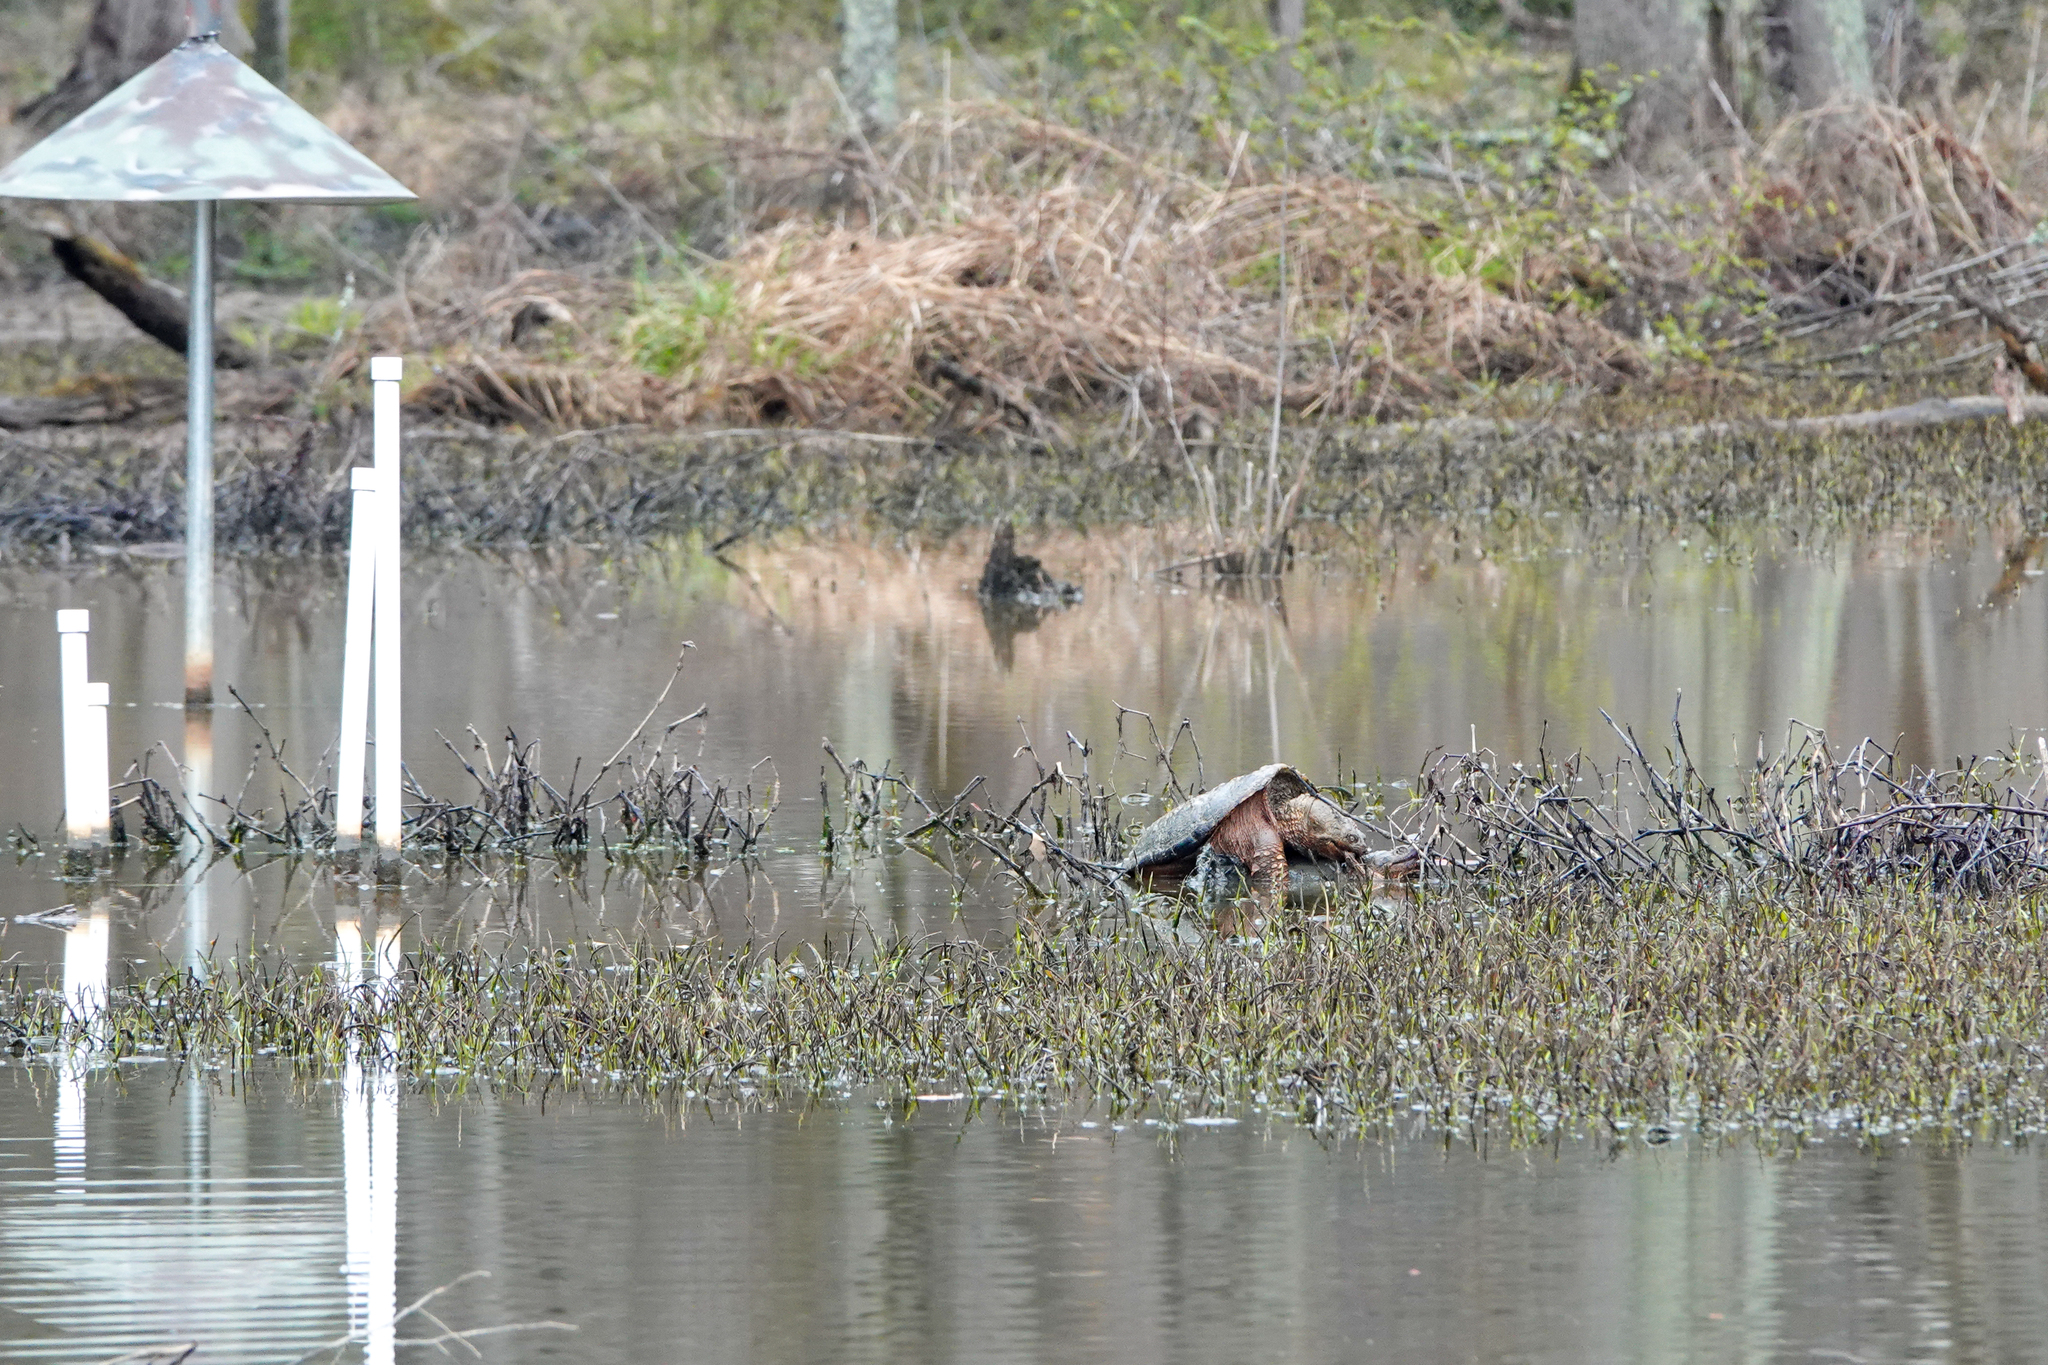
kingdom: Animalia
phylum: Chordata
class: Testudines
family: Chelydridae
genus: Chelydra
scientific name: Chelydra serpentina
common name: Common snapping turtle
